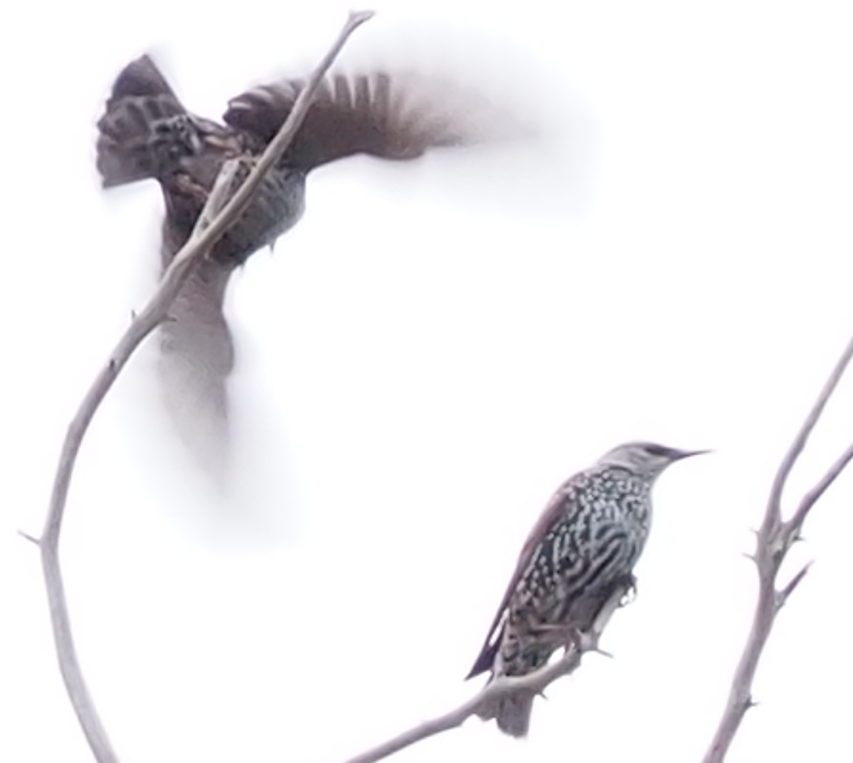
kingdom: Animalia
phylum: Chordata
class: Aves
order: Passeriformes
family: Sturnidae
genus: Sturnus
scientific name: Sturnus vulgaris
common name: Common starling
